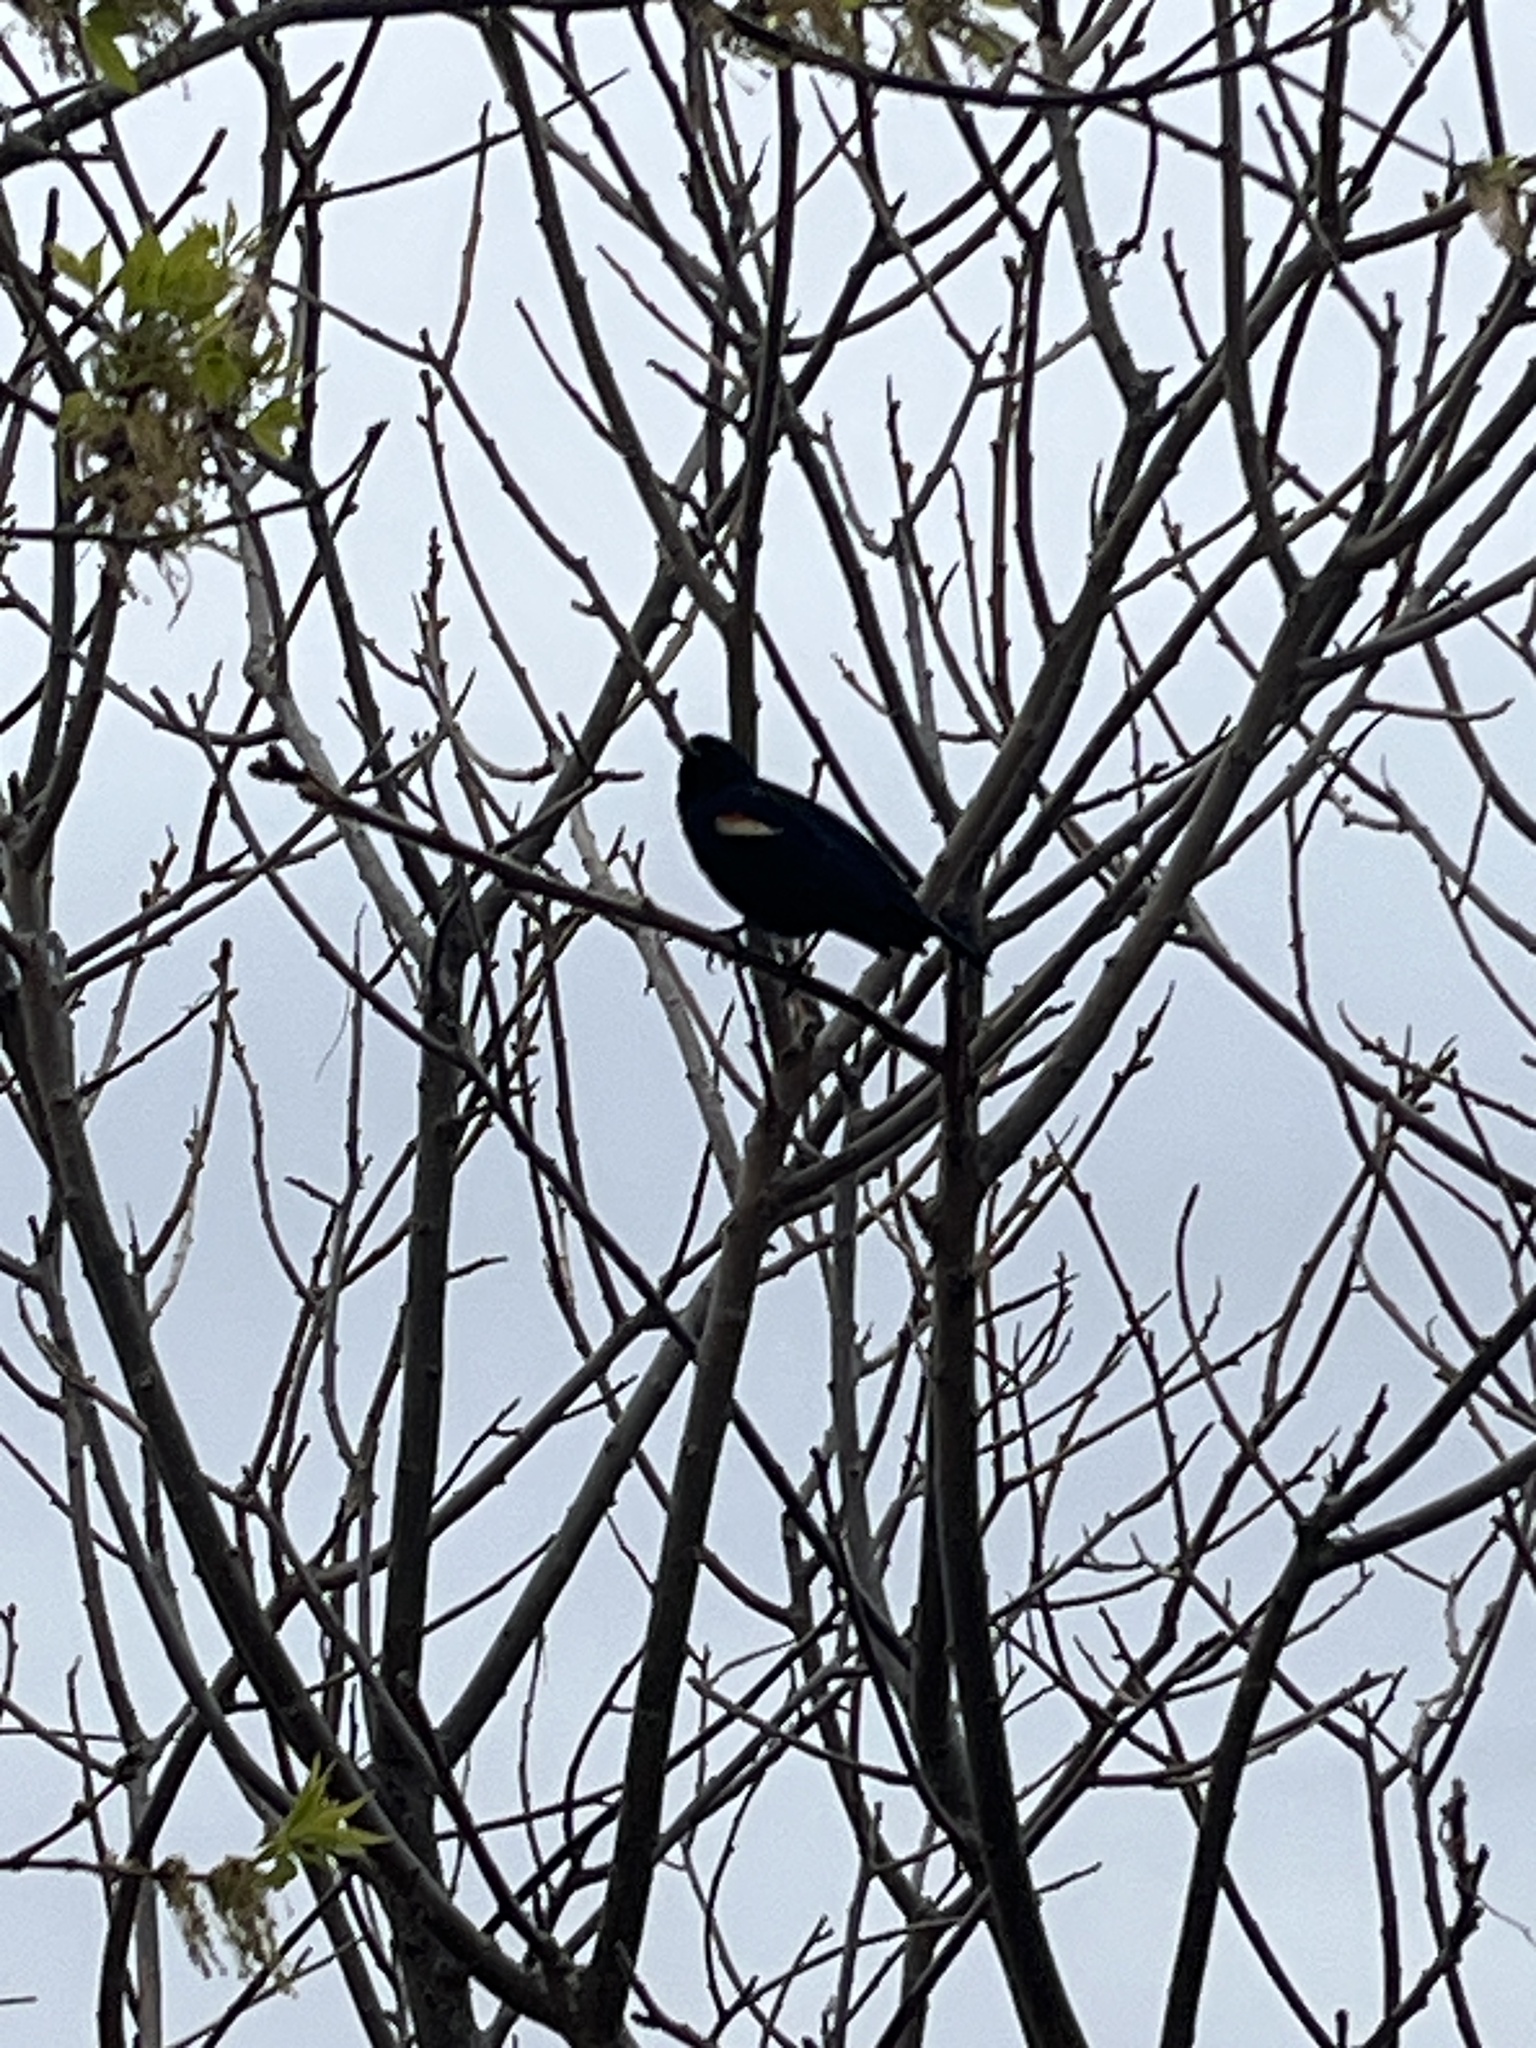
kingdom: Animalia
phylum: Chordata
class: Aves
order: Passeriformes
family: Icteridae
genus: Agelaius
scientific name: Agelaius phoeniceus
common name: Red-winged blackbird
